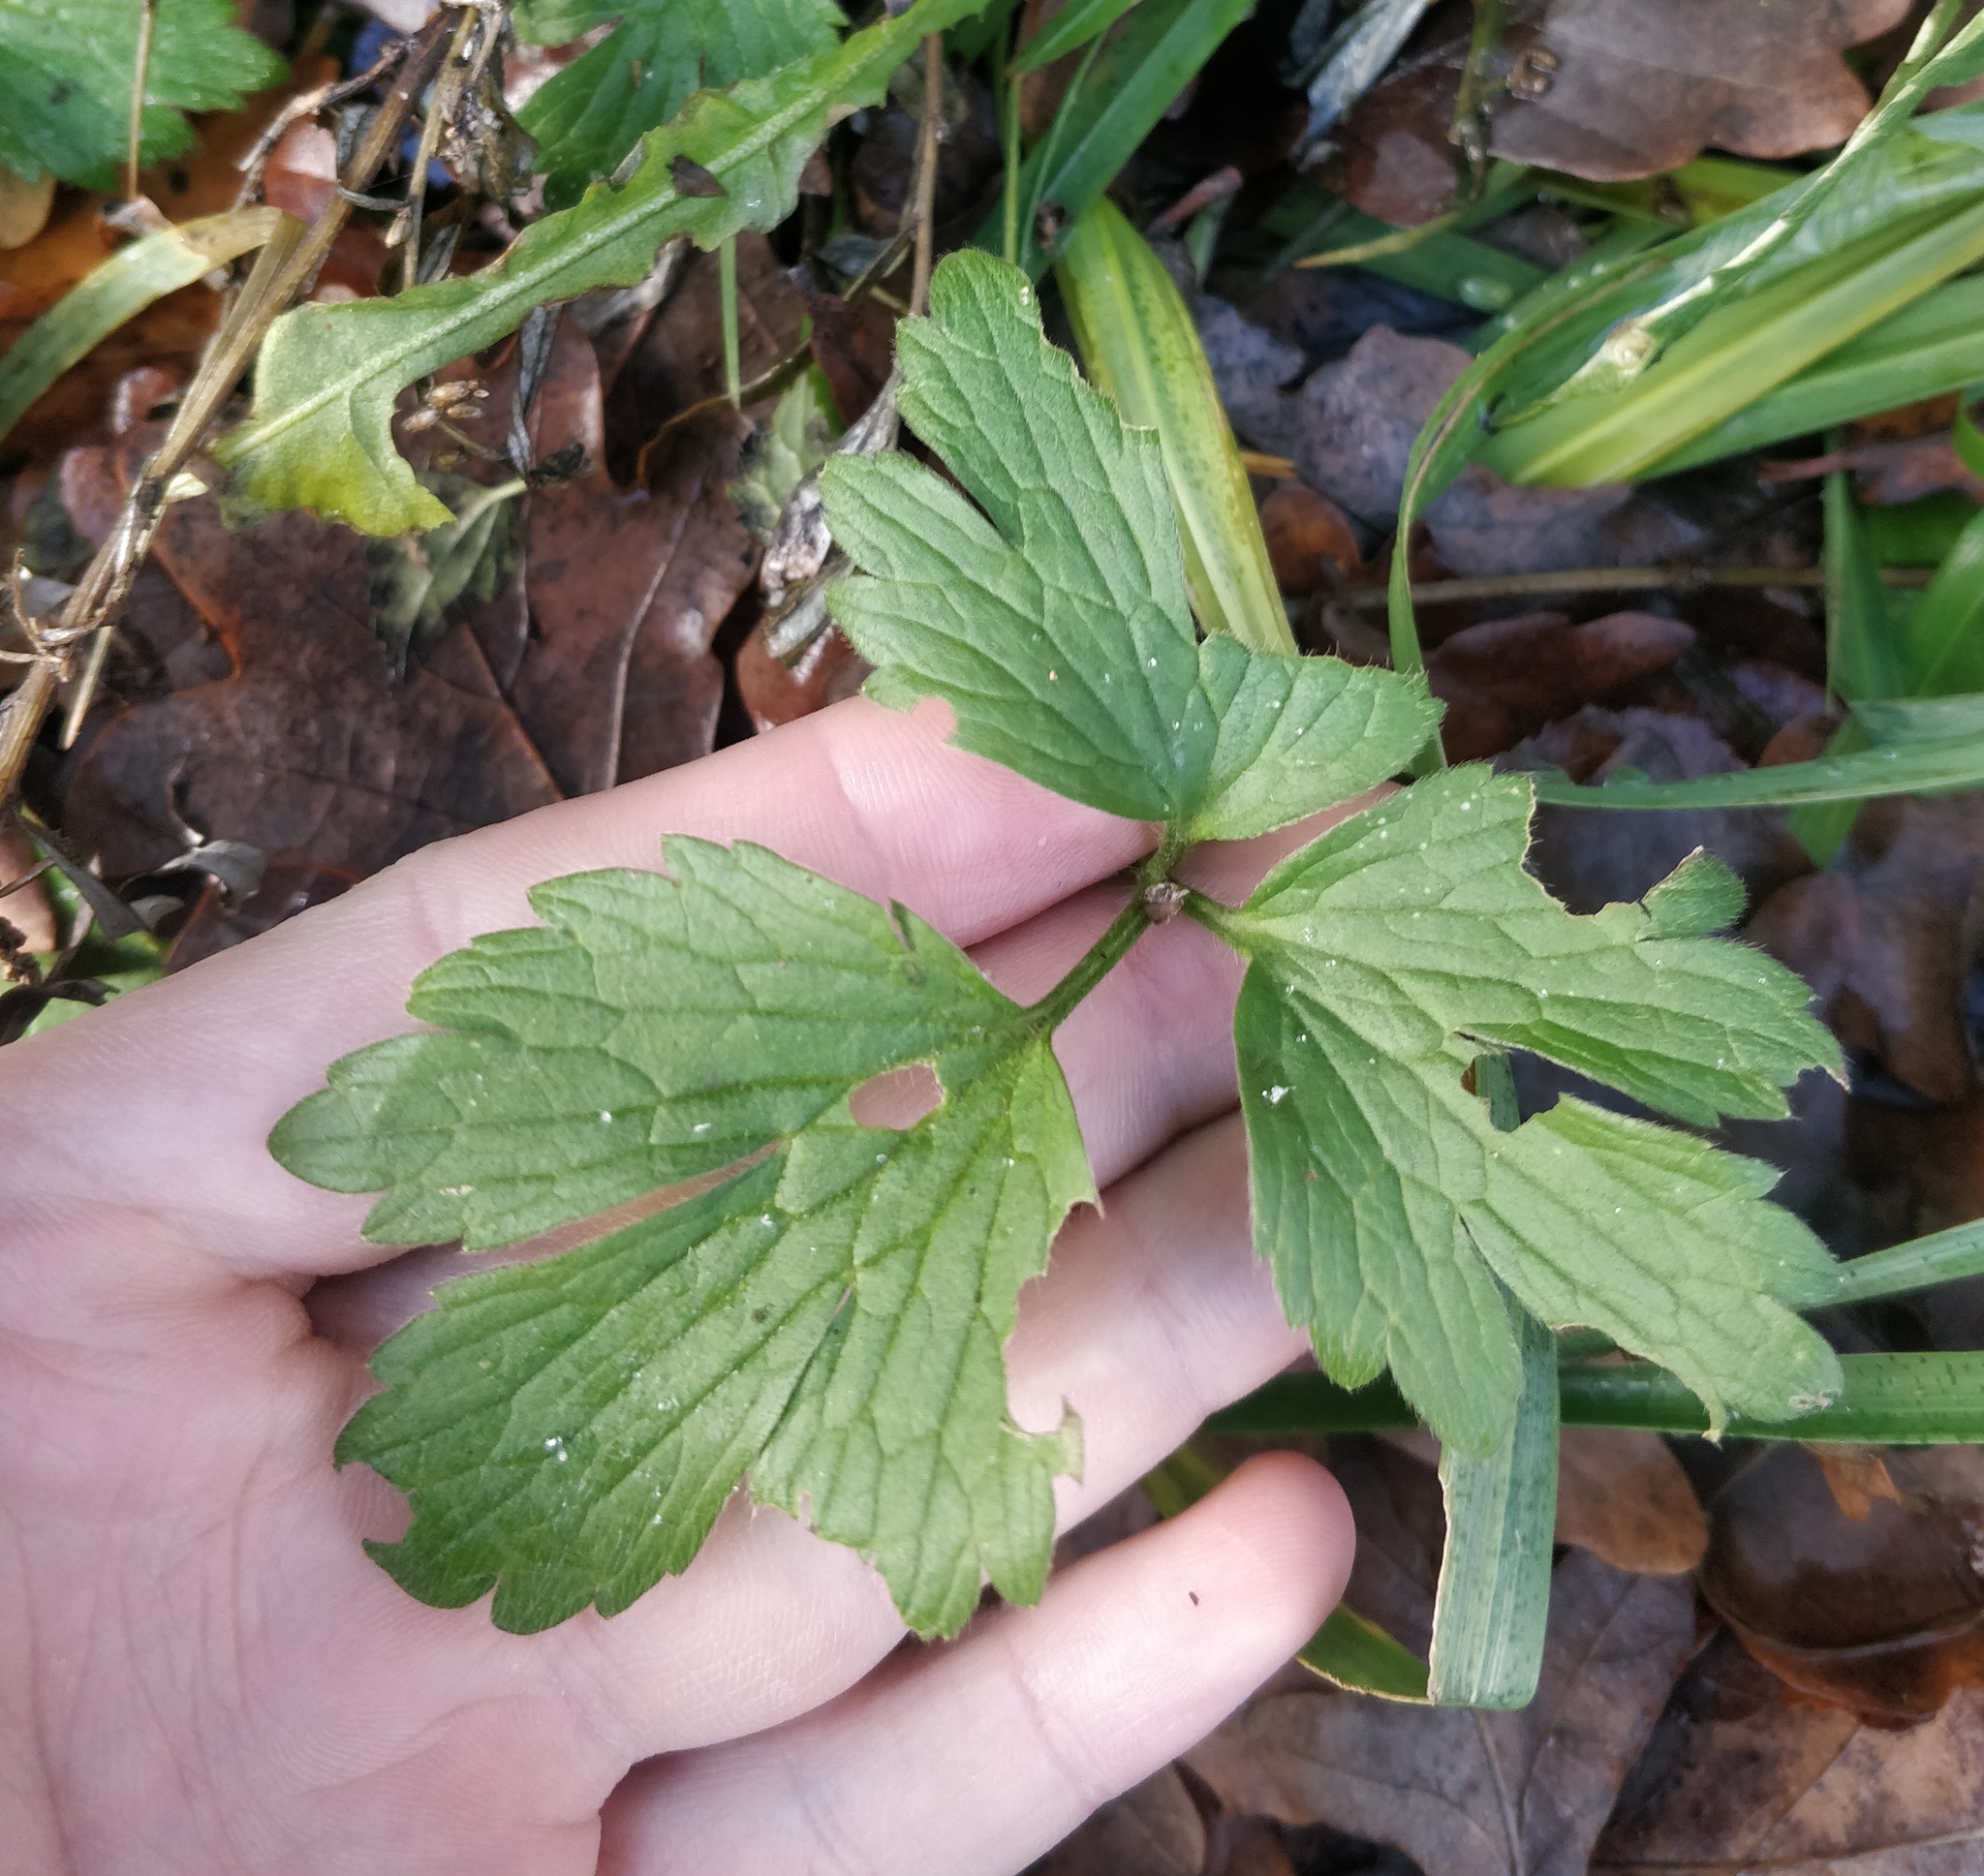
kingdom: Plantae
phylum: Tracheophyta
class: Magnoliopsida
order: Ranunculales
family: Ranunculaceae
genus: Ranunculus
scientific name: Ranunculus repens
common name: Creeping buttercup
